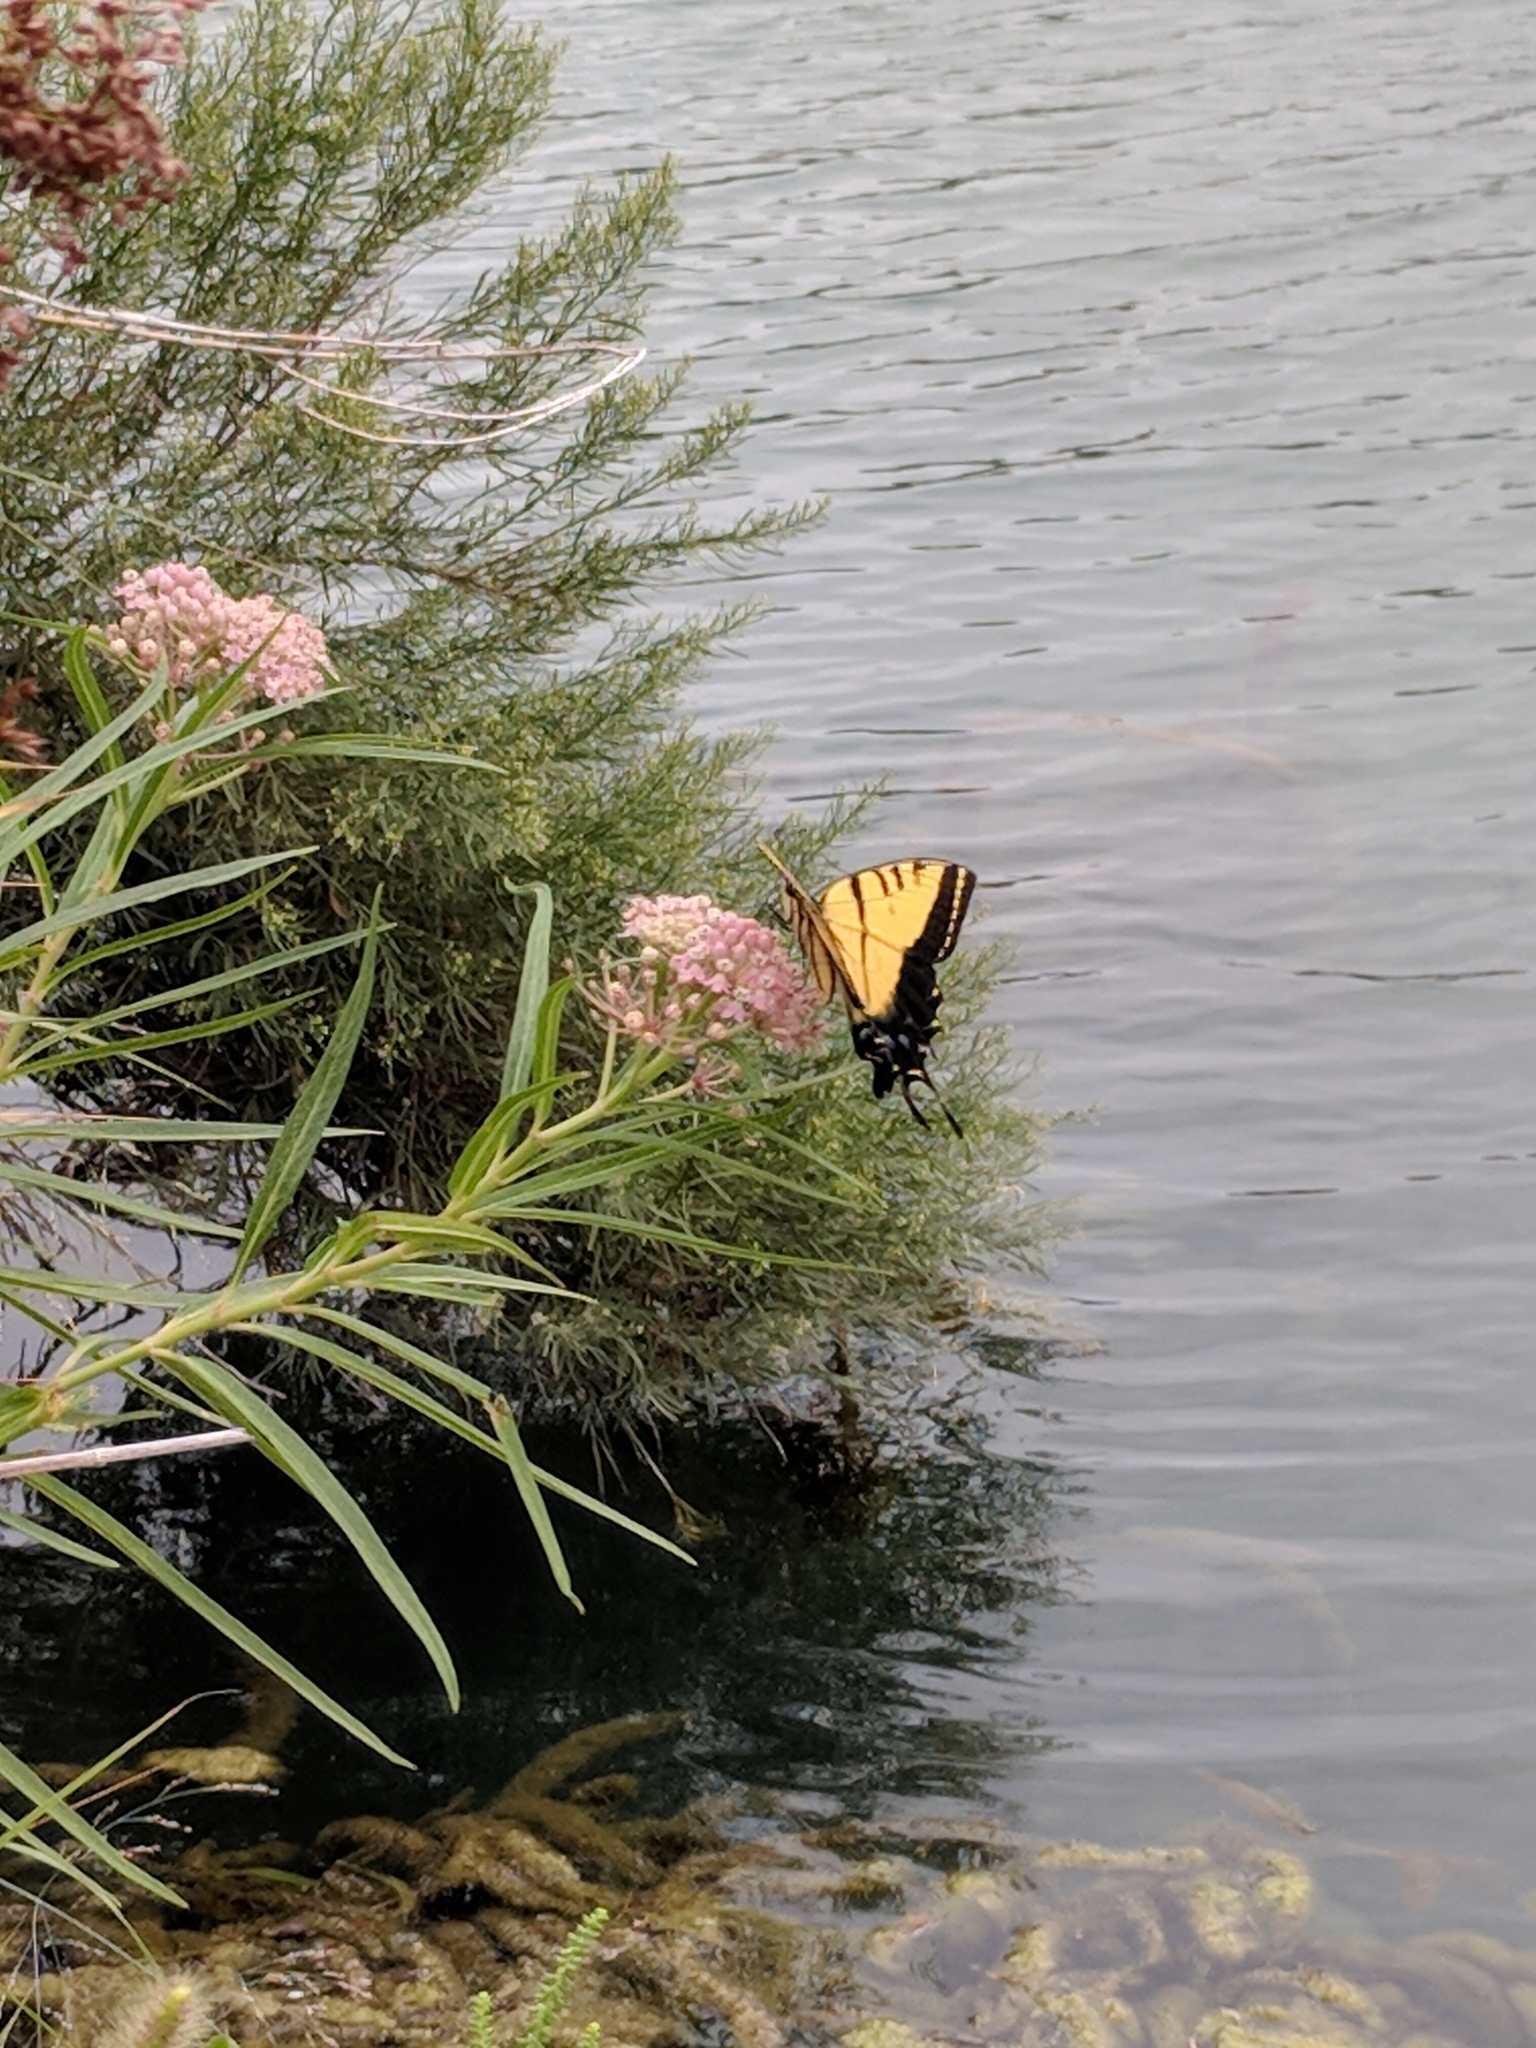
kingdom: Animalia
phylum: Arthropoda
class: Insecta
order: Lepidoptera
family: Papilionidae
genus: Papilio
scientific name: Papilio multicaudata
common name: Two-tailed tiger swallowtail
